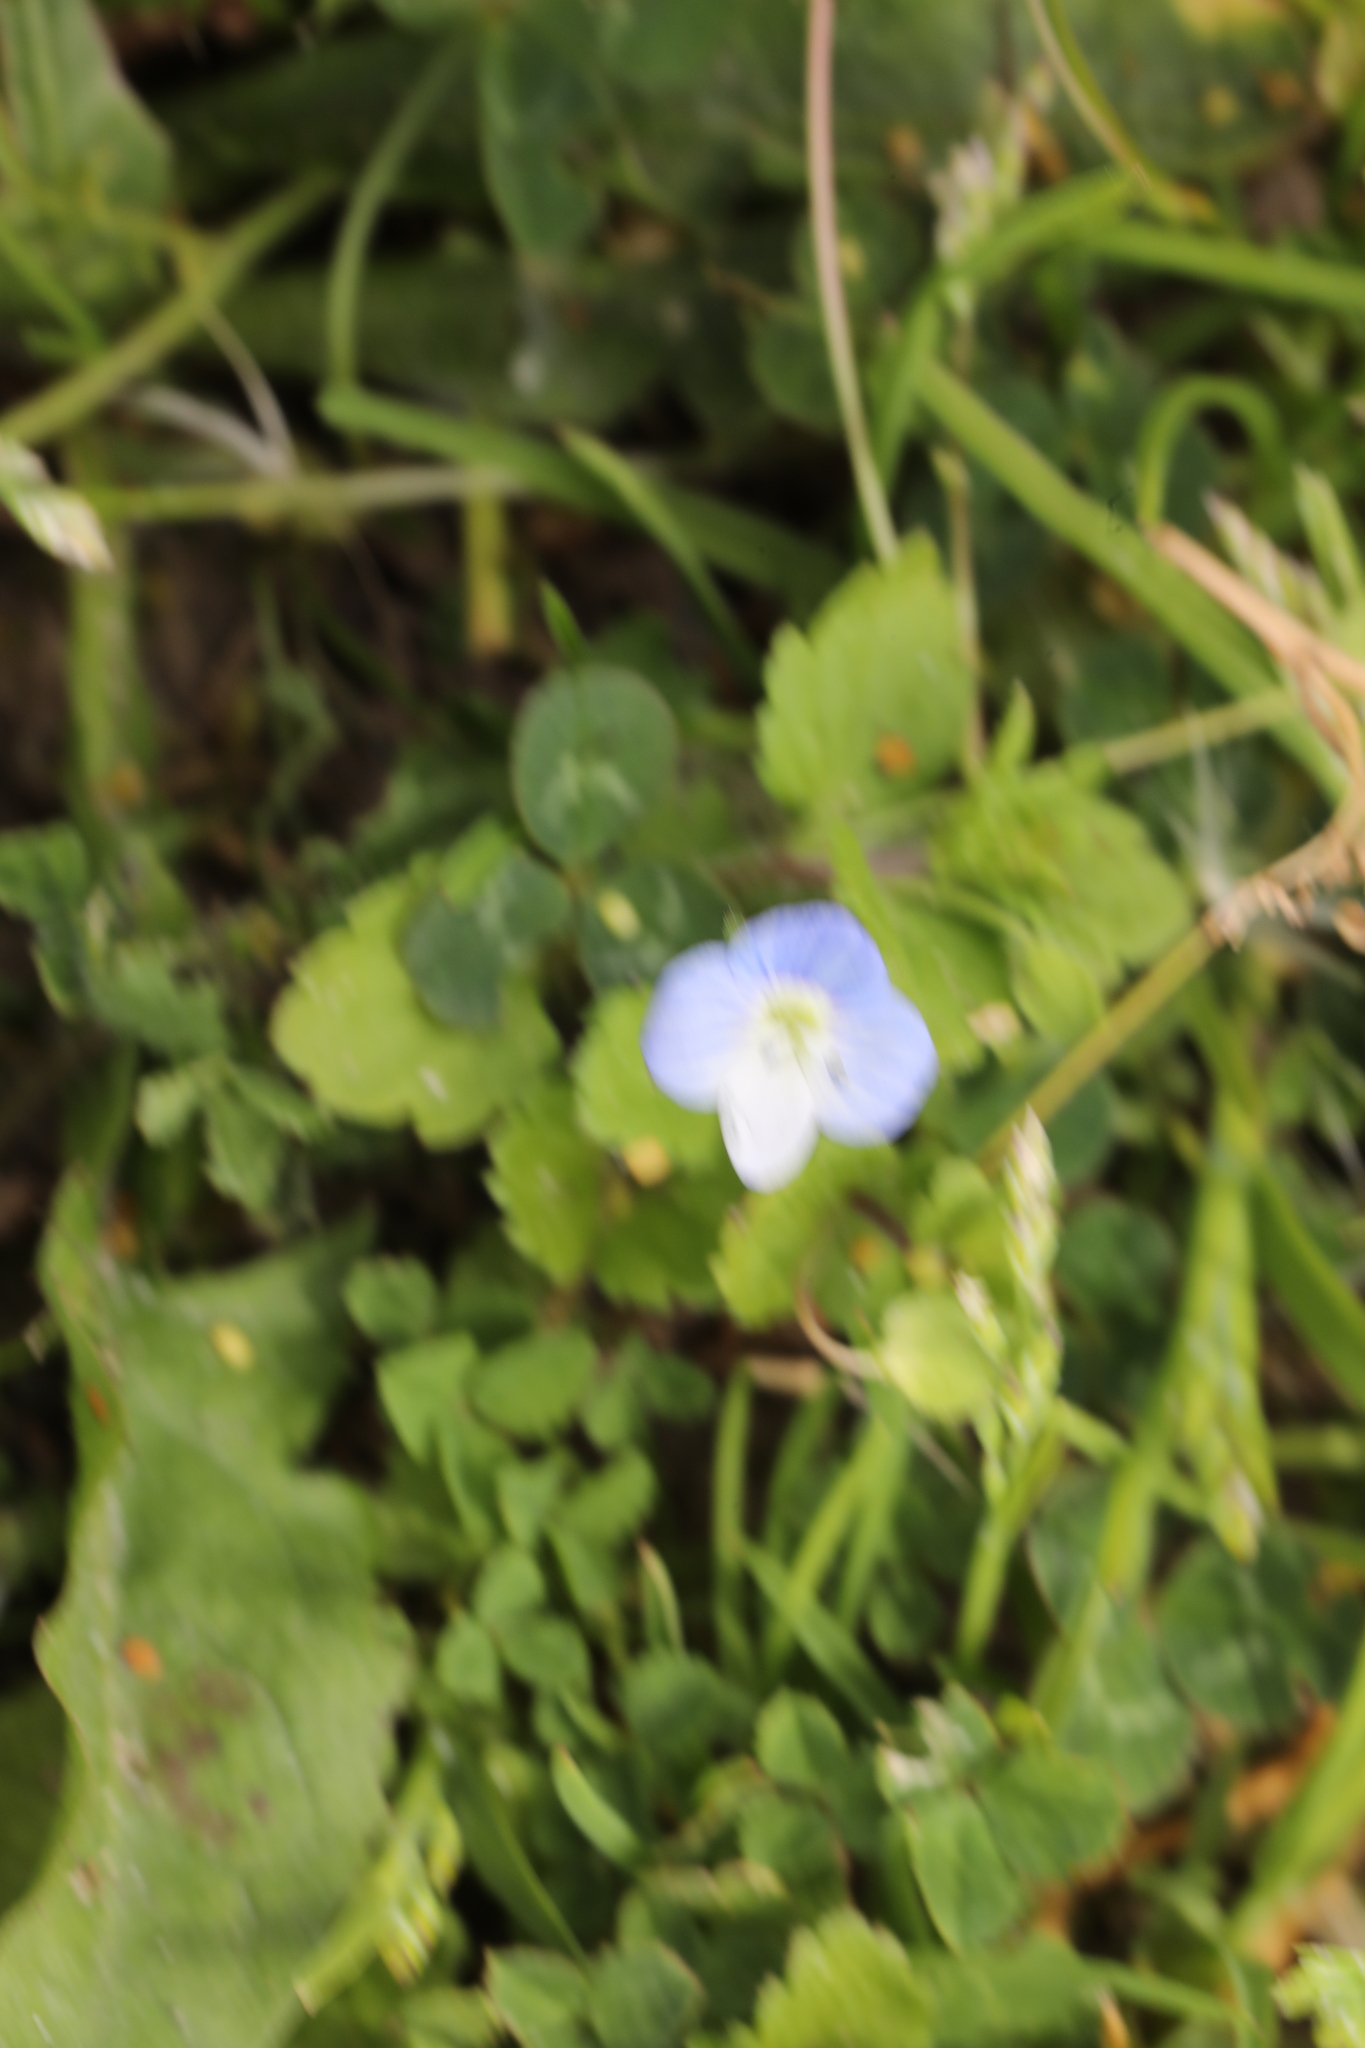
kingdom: Plantae
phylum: Tracheophyta
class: Magnoliopsida
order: Lamiales
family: Plantaginaceae
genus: Veronica
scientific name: Veronica persica
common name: Common field-speedwell
